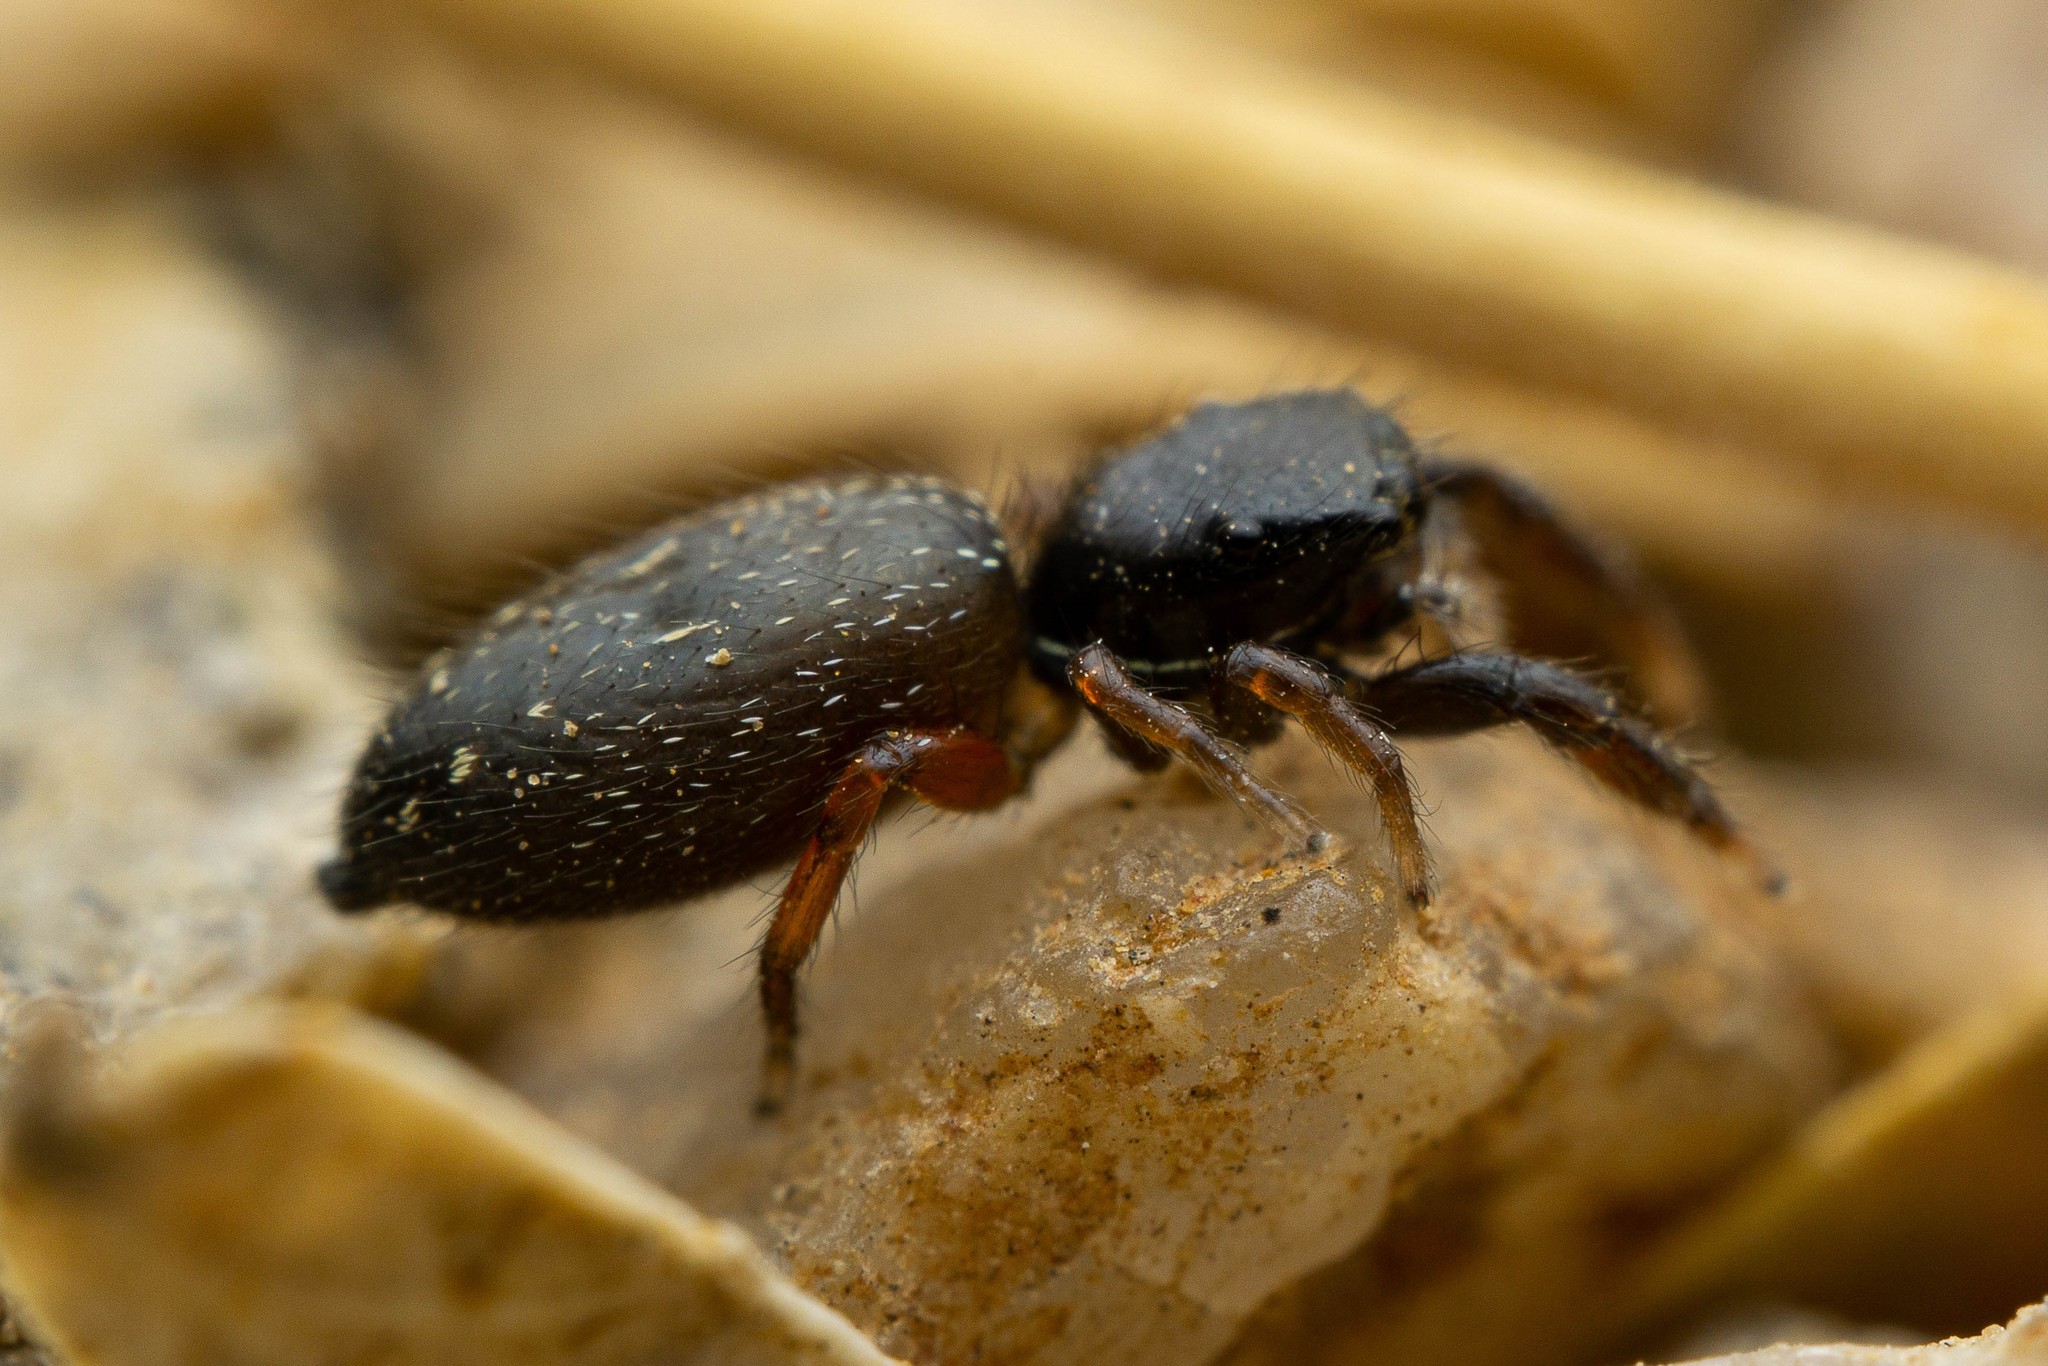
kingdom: Animalia
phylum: Arthropoda
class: Arachnida
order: Araneae
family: Salticidae
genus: Metacyrba
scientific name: Metacyrba taeniola
